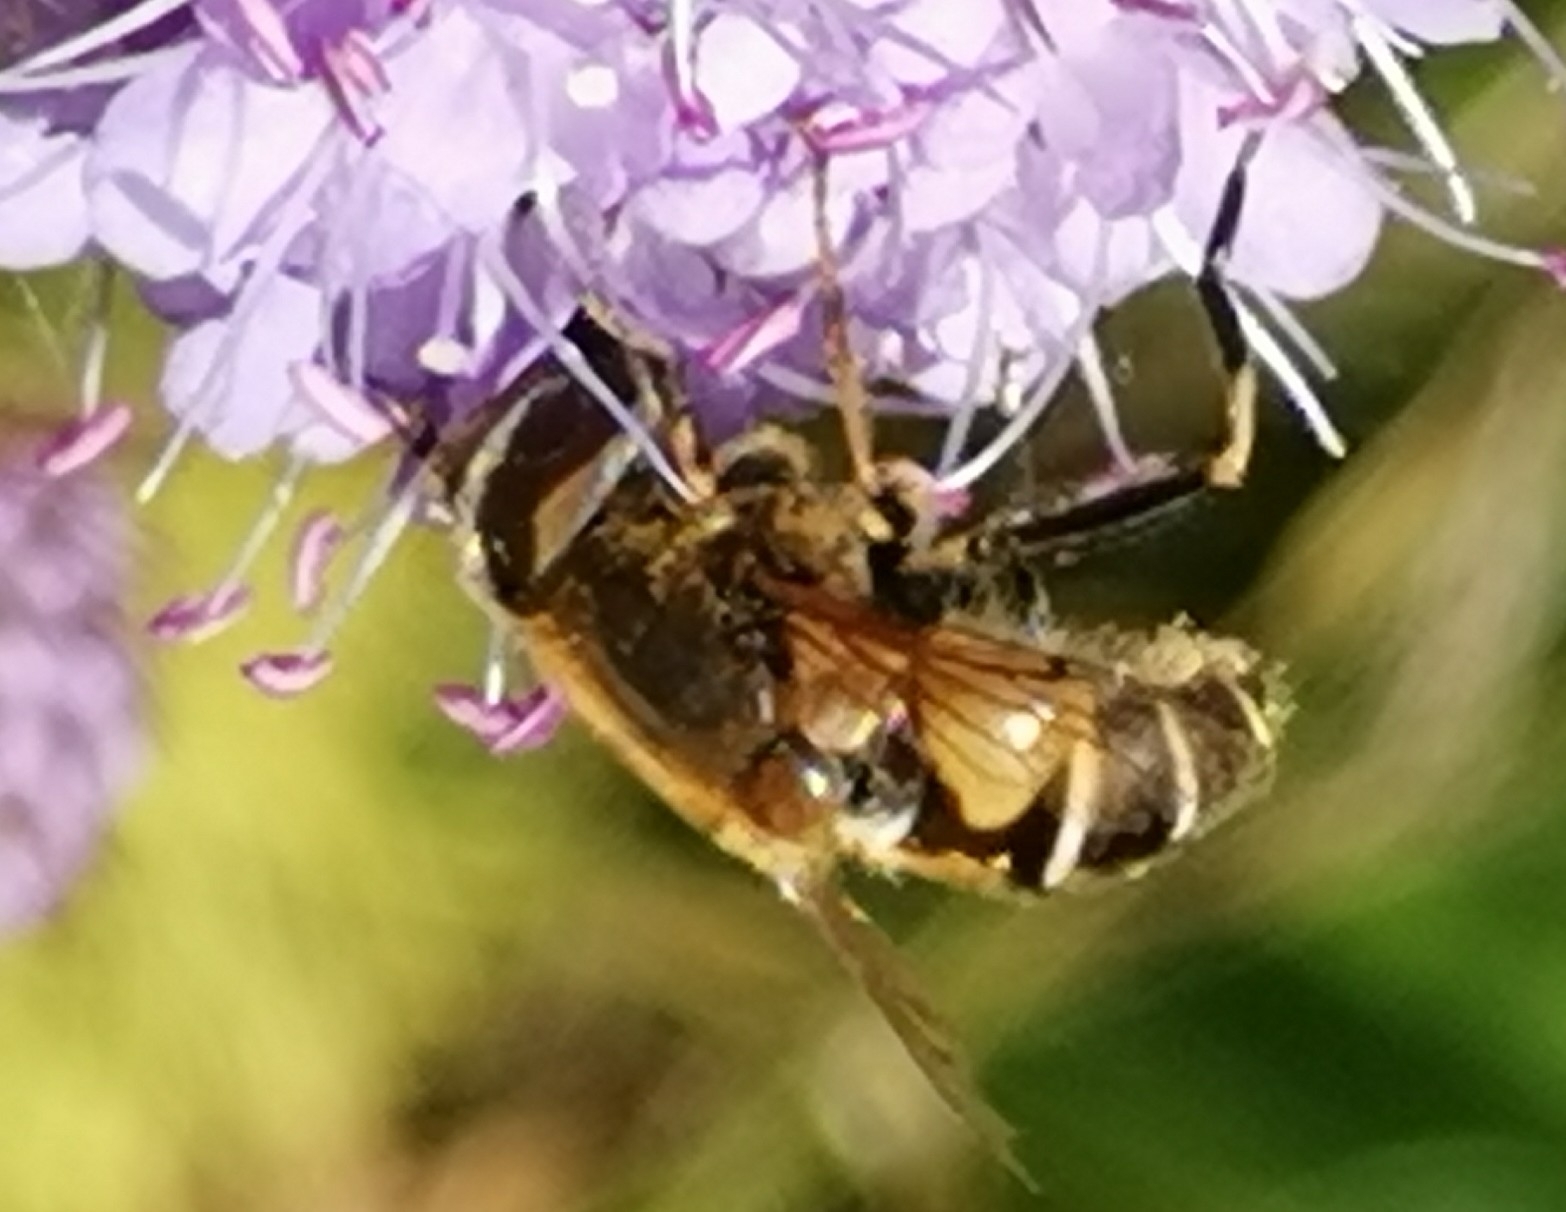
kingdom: Animalia
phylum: Arthropoda
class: Insecta
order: Diptera
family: Syrphidae
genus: Eristalis
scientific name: Eristalis nemorum
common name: Orange-spined drone fly
